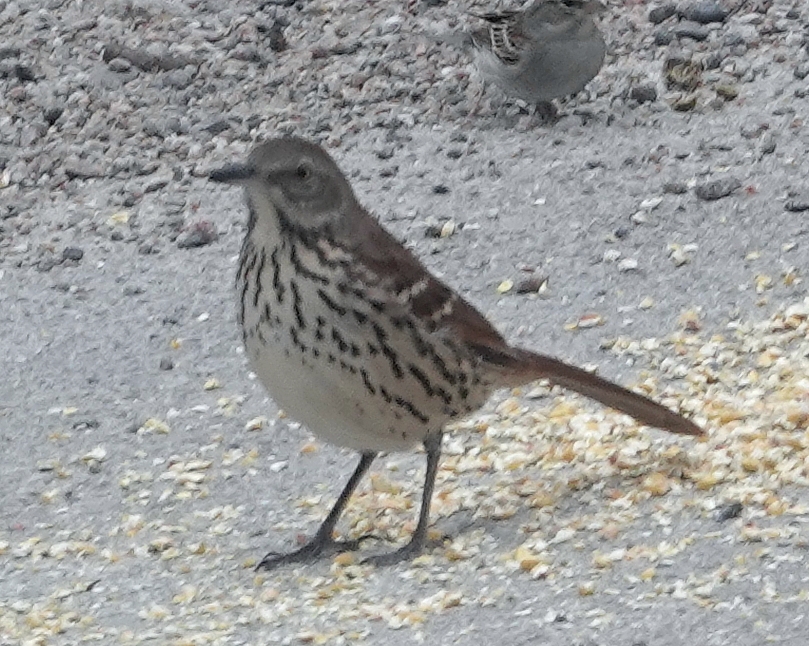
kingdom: Animalia
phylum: Chordata
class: Aves
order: Passeriformes
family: Mimidae
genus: Toxostoma
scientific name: Toxostoma rufum
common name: Brown thrasher
